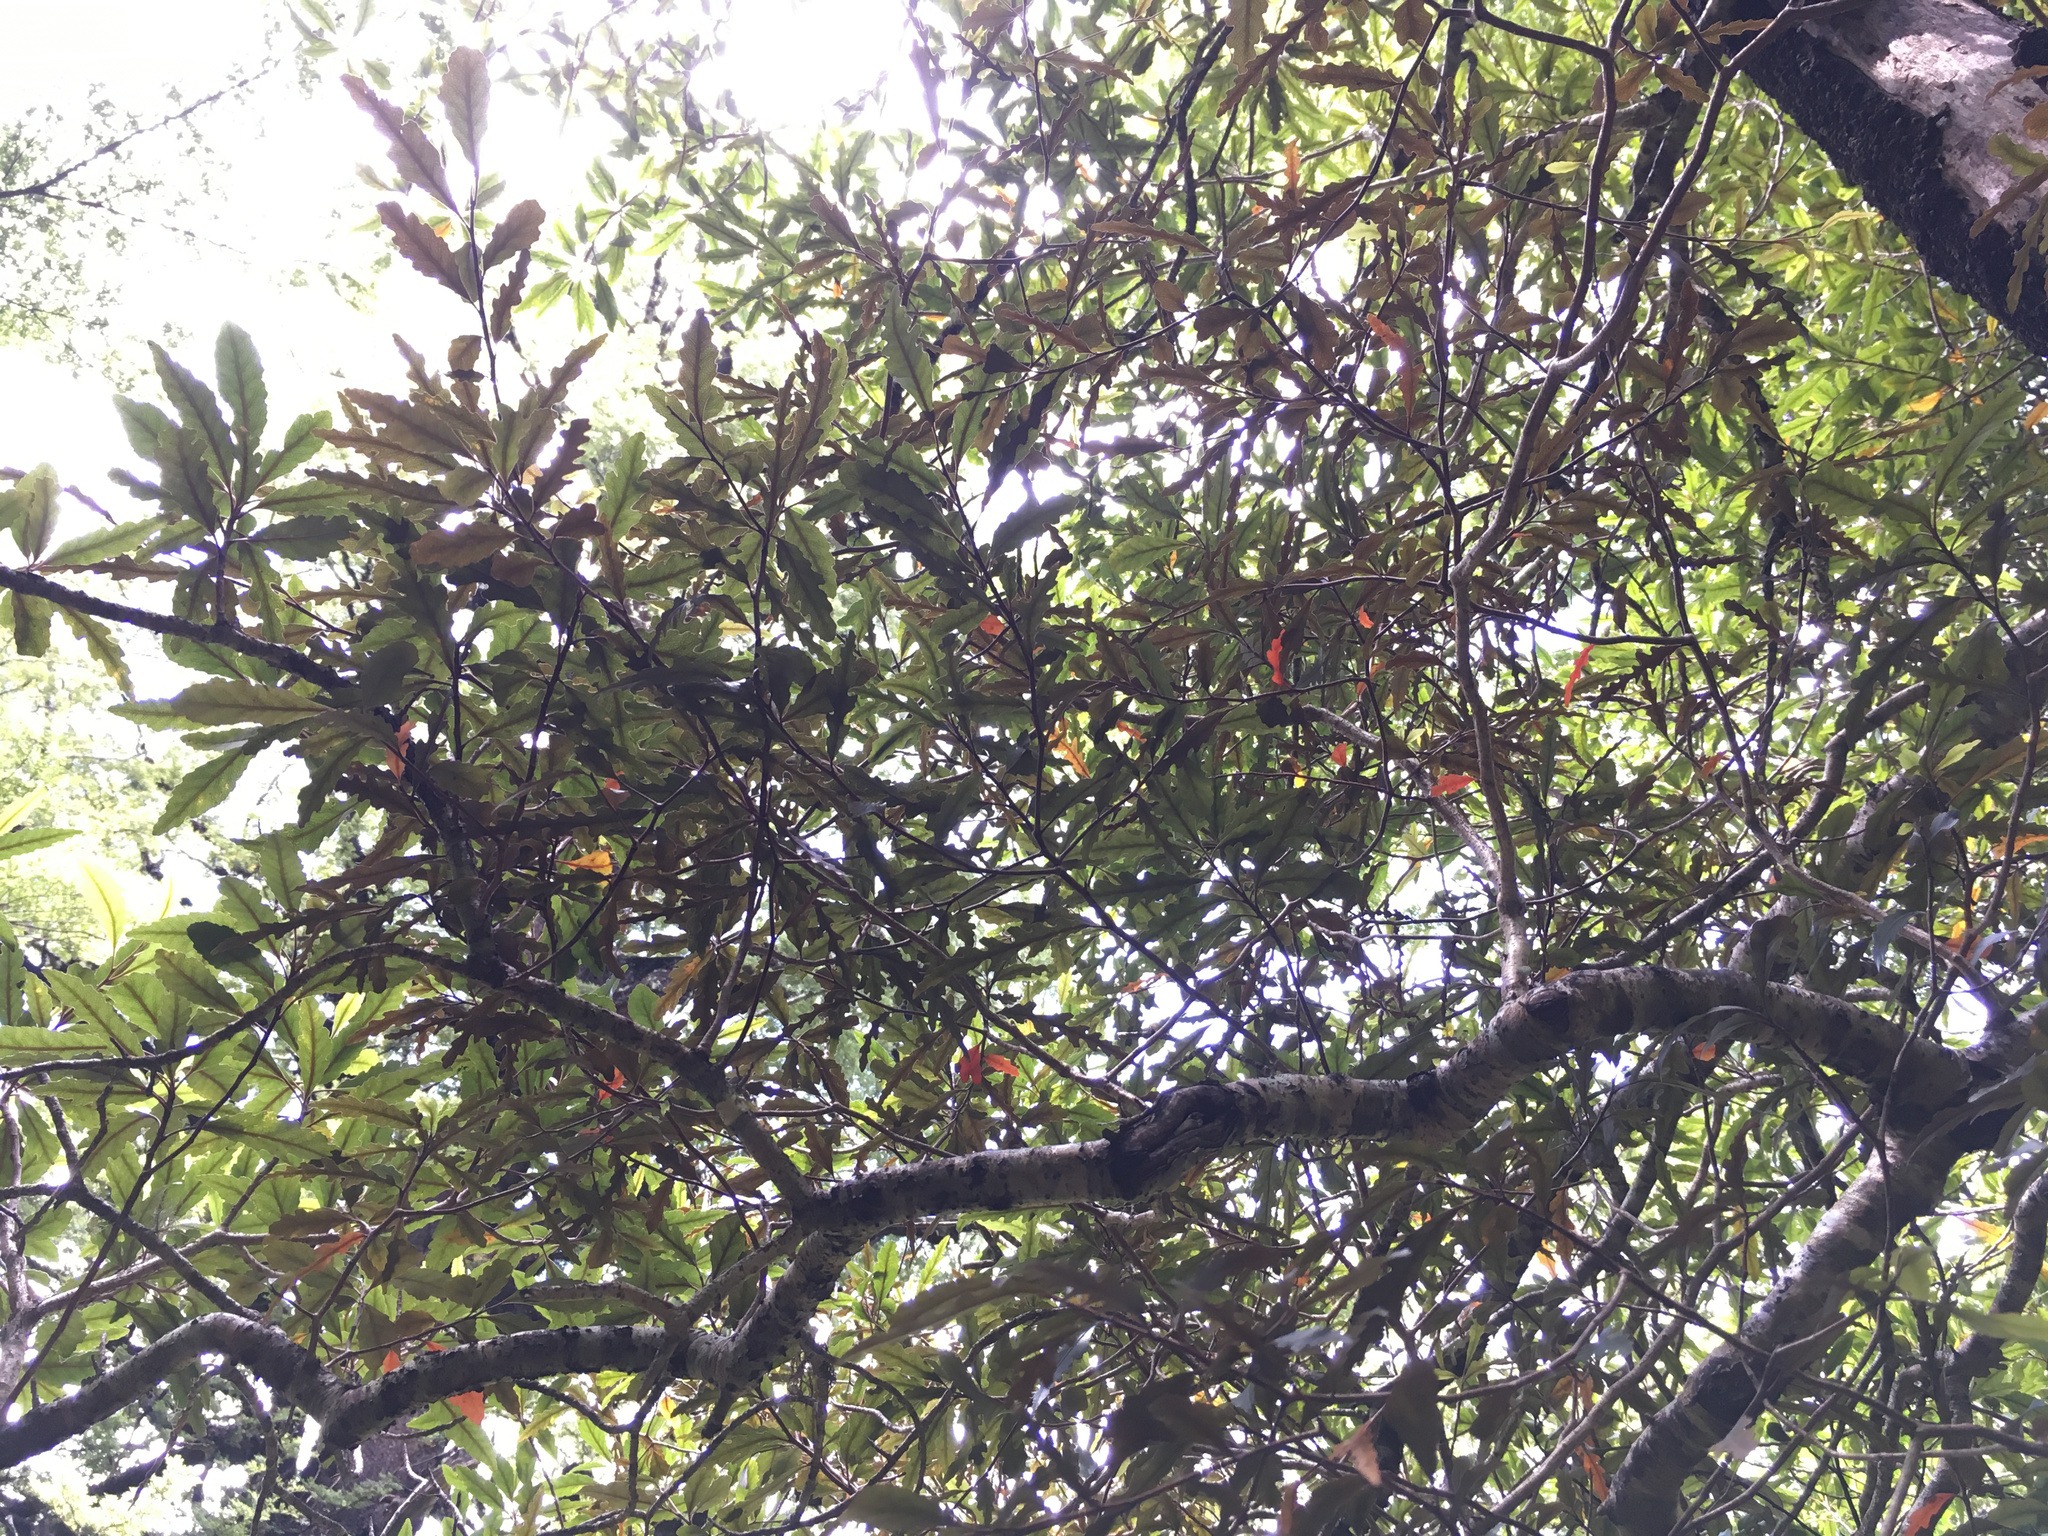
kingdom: Plantae
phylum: Tracheophyta
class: Magnoliopsida
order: Oxalidales
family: Elaeocarpaceae
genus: Elaeocarpus
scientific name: Elaeocarpus hookerianus
